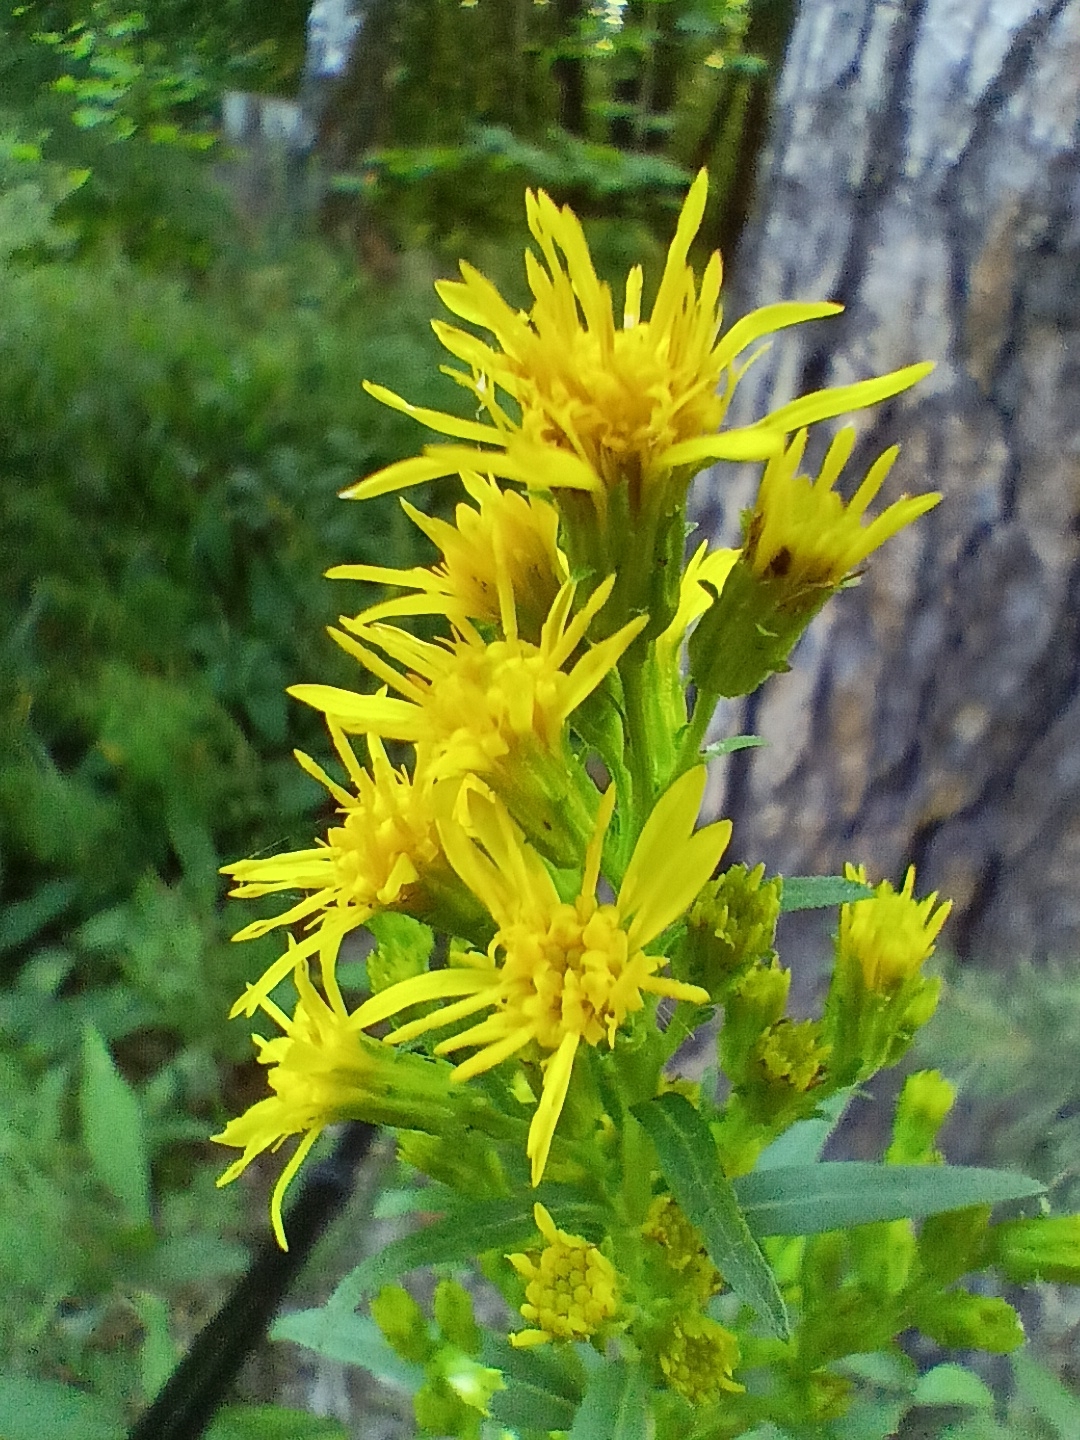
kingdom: Plantae
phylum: Tracheophyta
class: Magnoliopsida
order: Asterales
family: Asteraceae
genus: Solidago
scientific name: Solidago virgaurea
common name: Goldenrod
